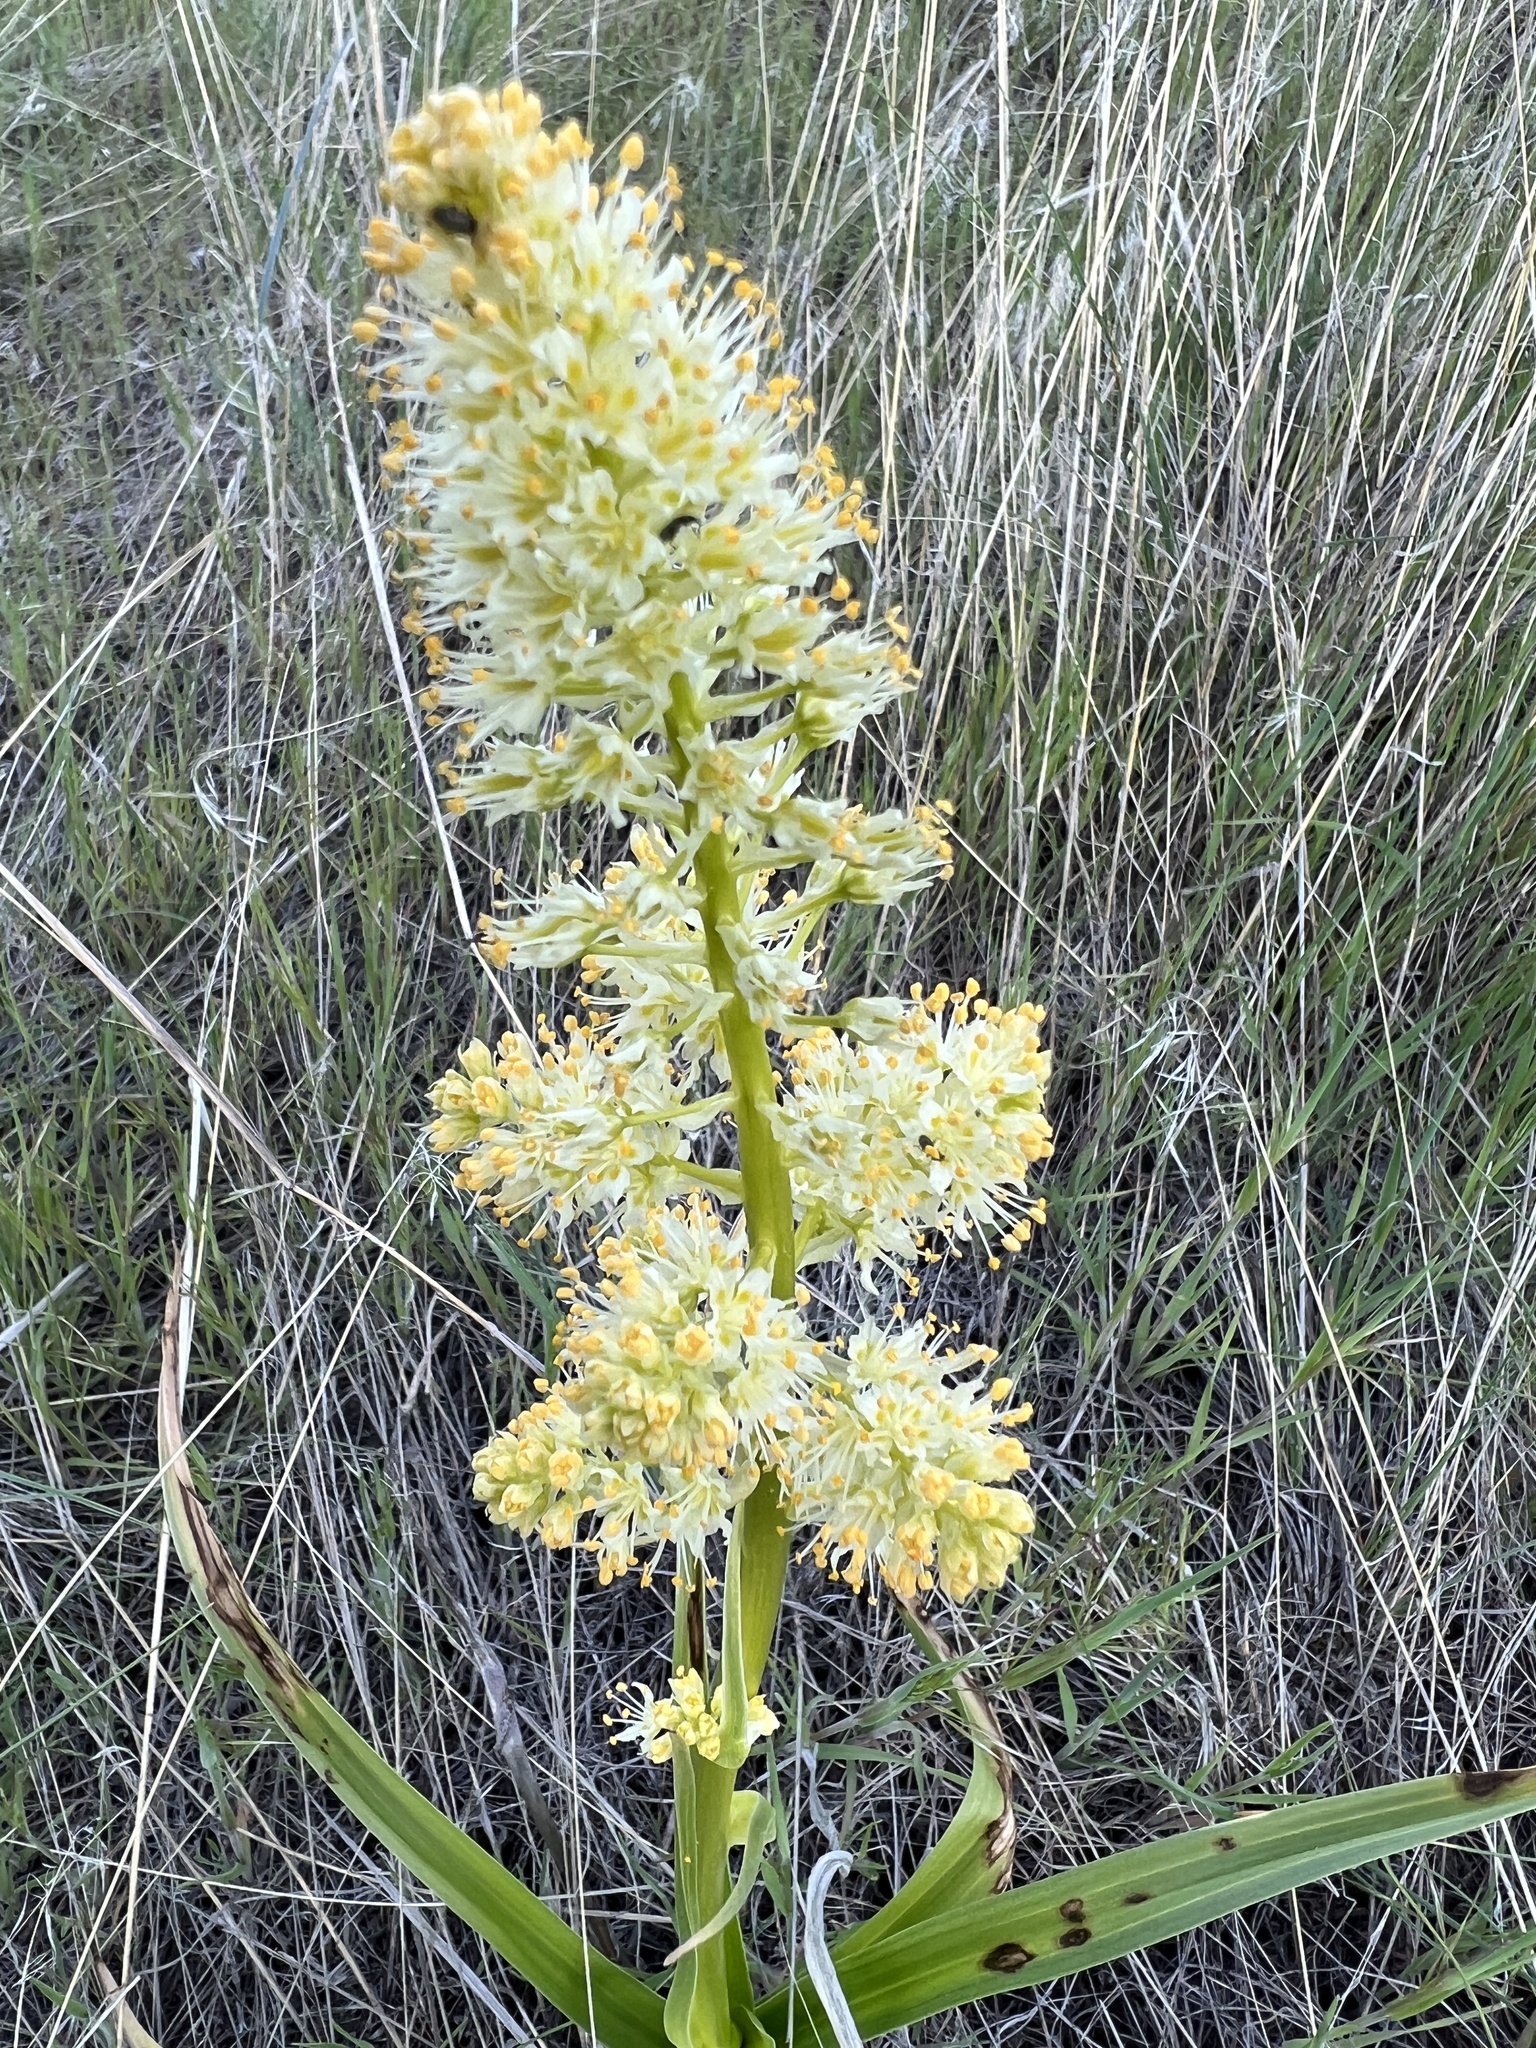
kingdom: Plantae
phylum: Tracheophyta
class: Liliopsida
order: Liliales
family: Melanthiaceae
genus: Toxicoscordion
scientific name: Toxicoscordion paniculatum
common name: Foothill death camas
